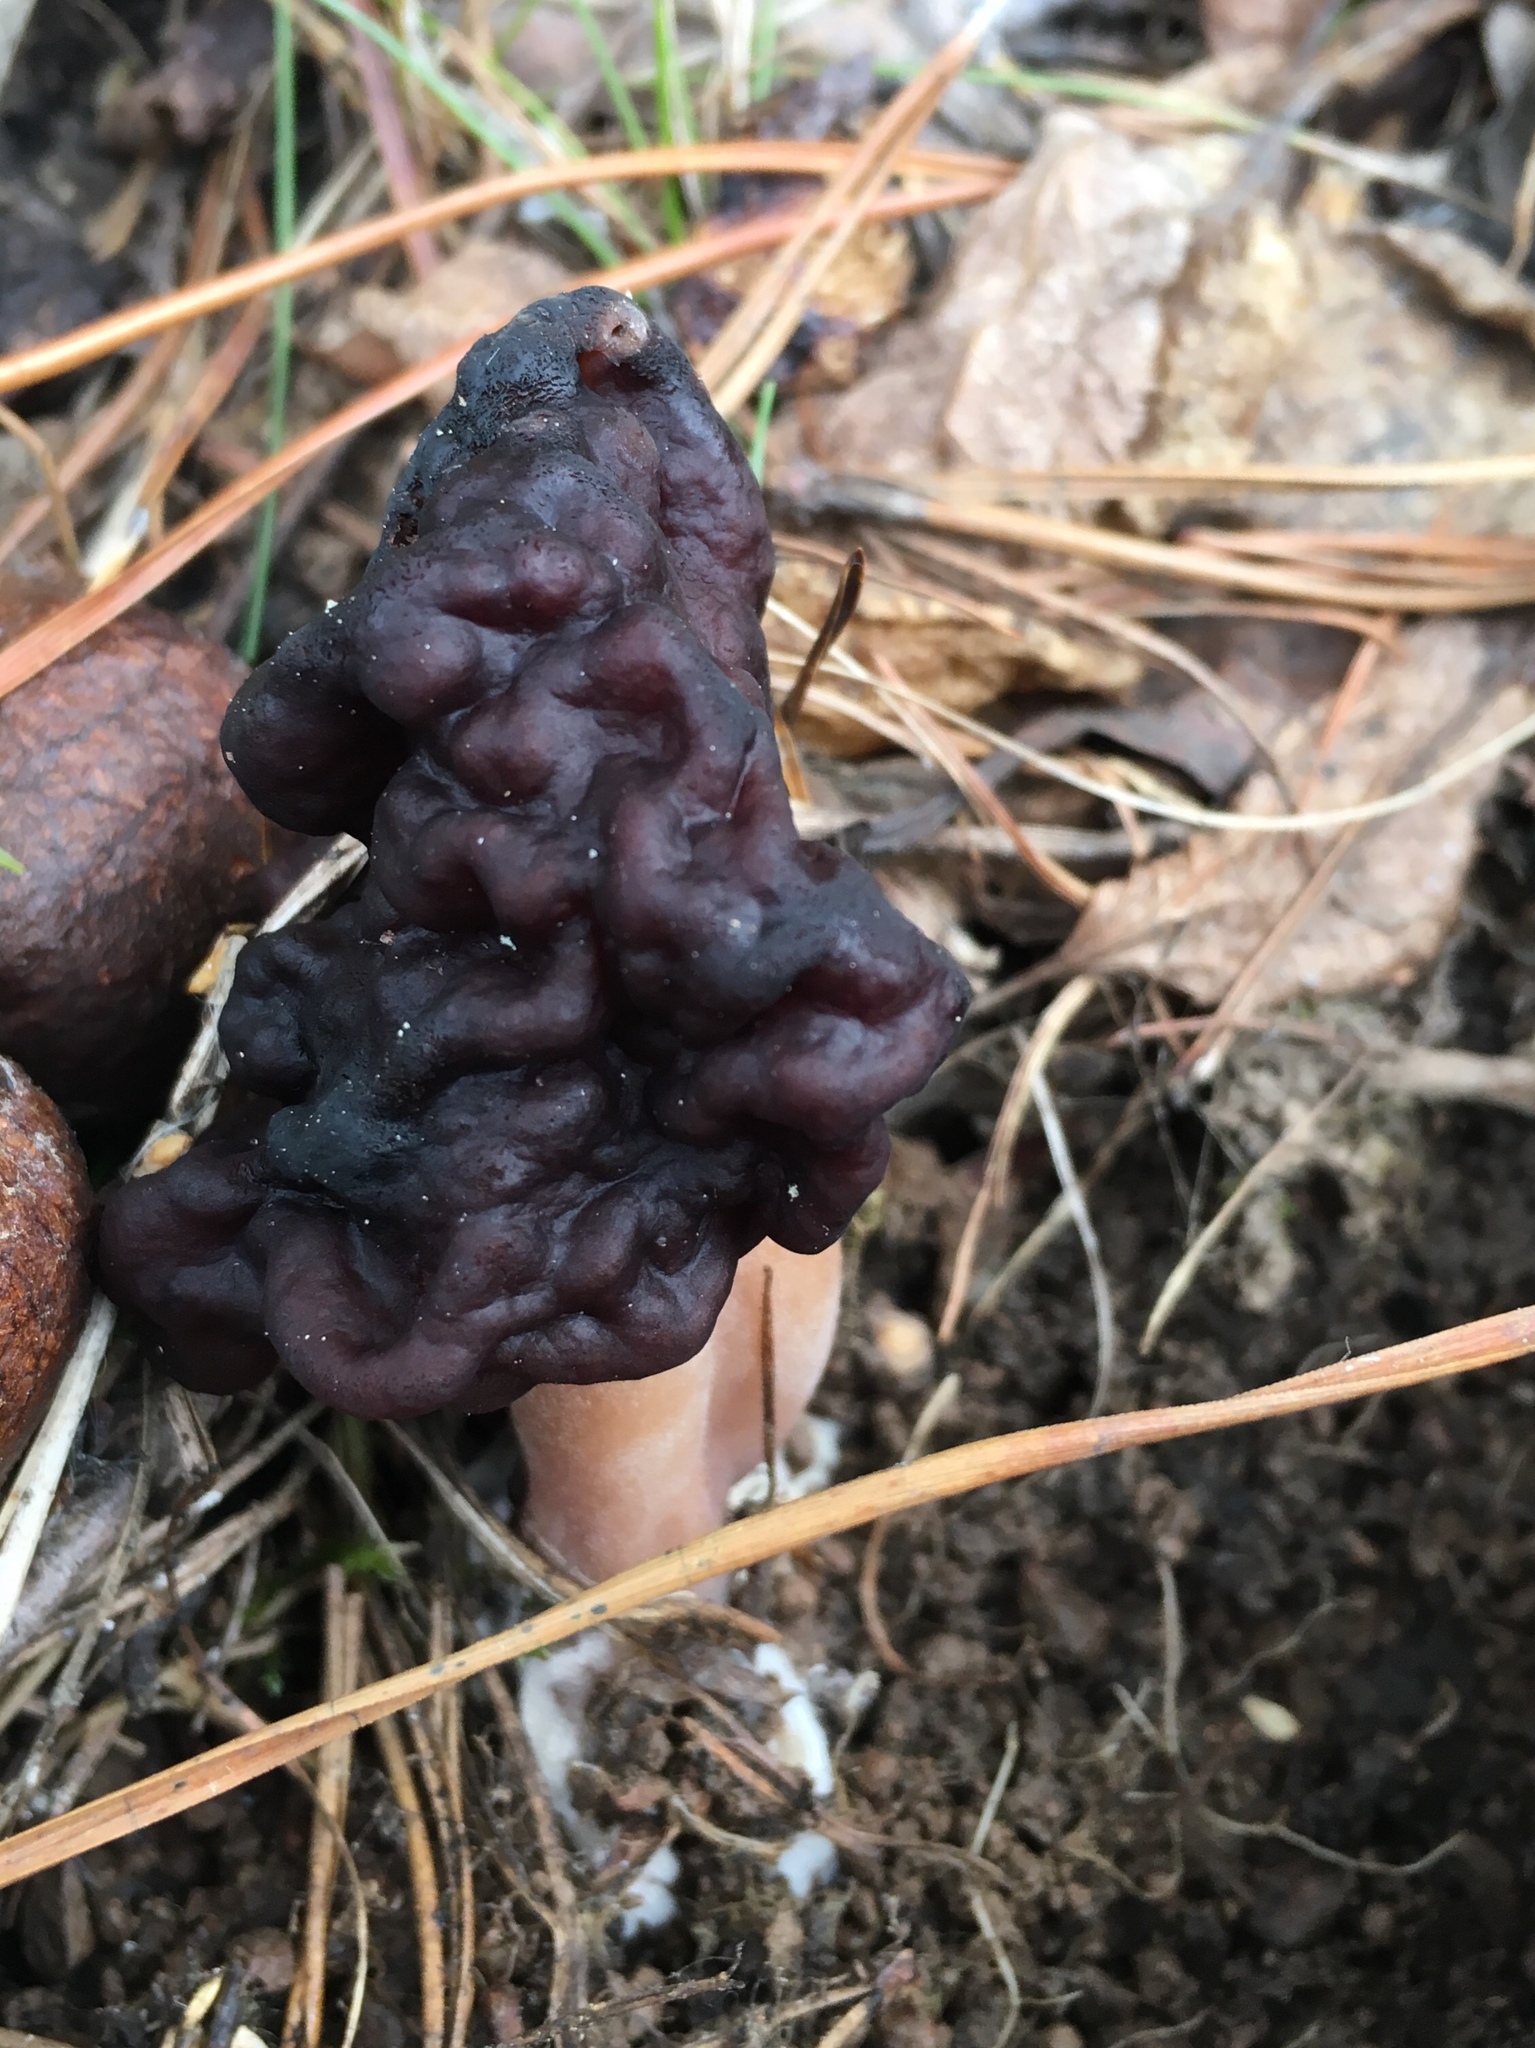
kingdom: Fungi
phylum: Ascomycota
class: Pezizomycetes
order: Pezizales
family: Discinaceae
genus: Gyromitra
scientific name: Gyromitra esculenta
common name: False morel
